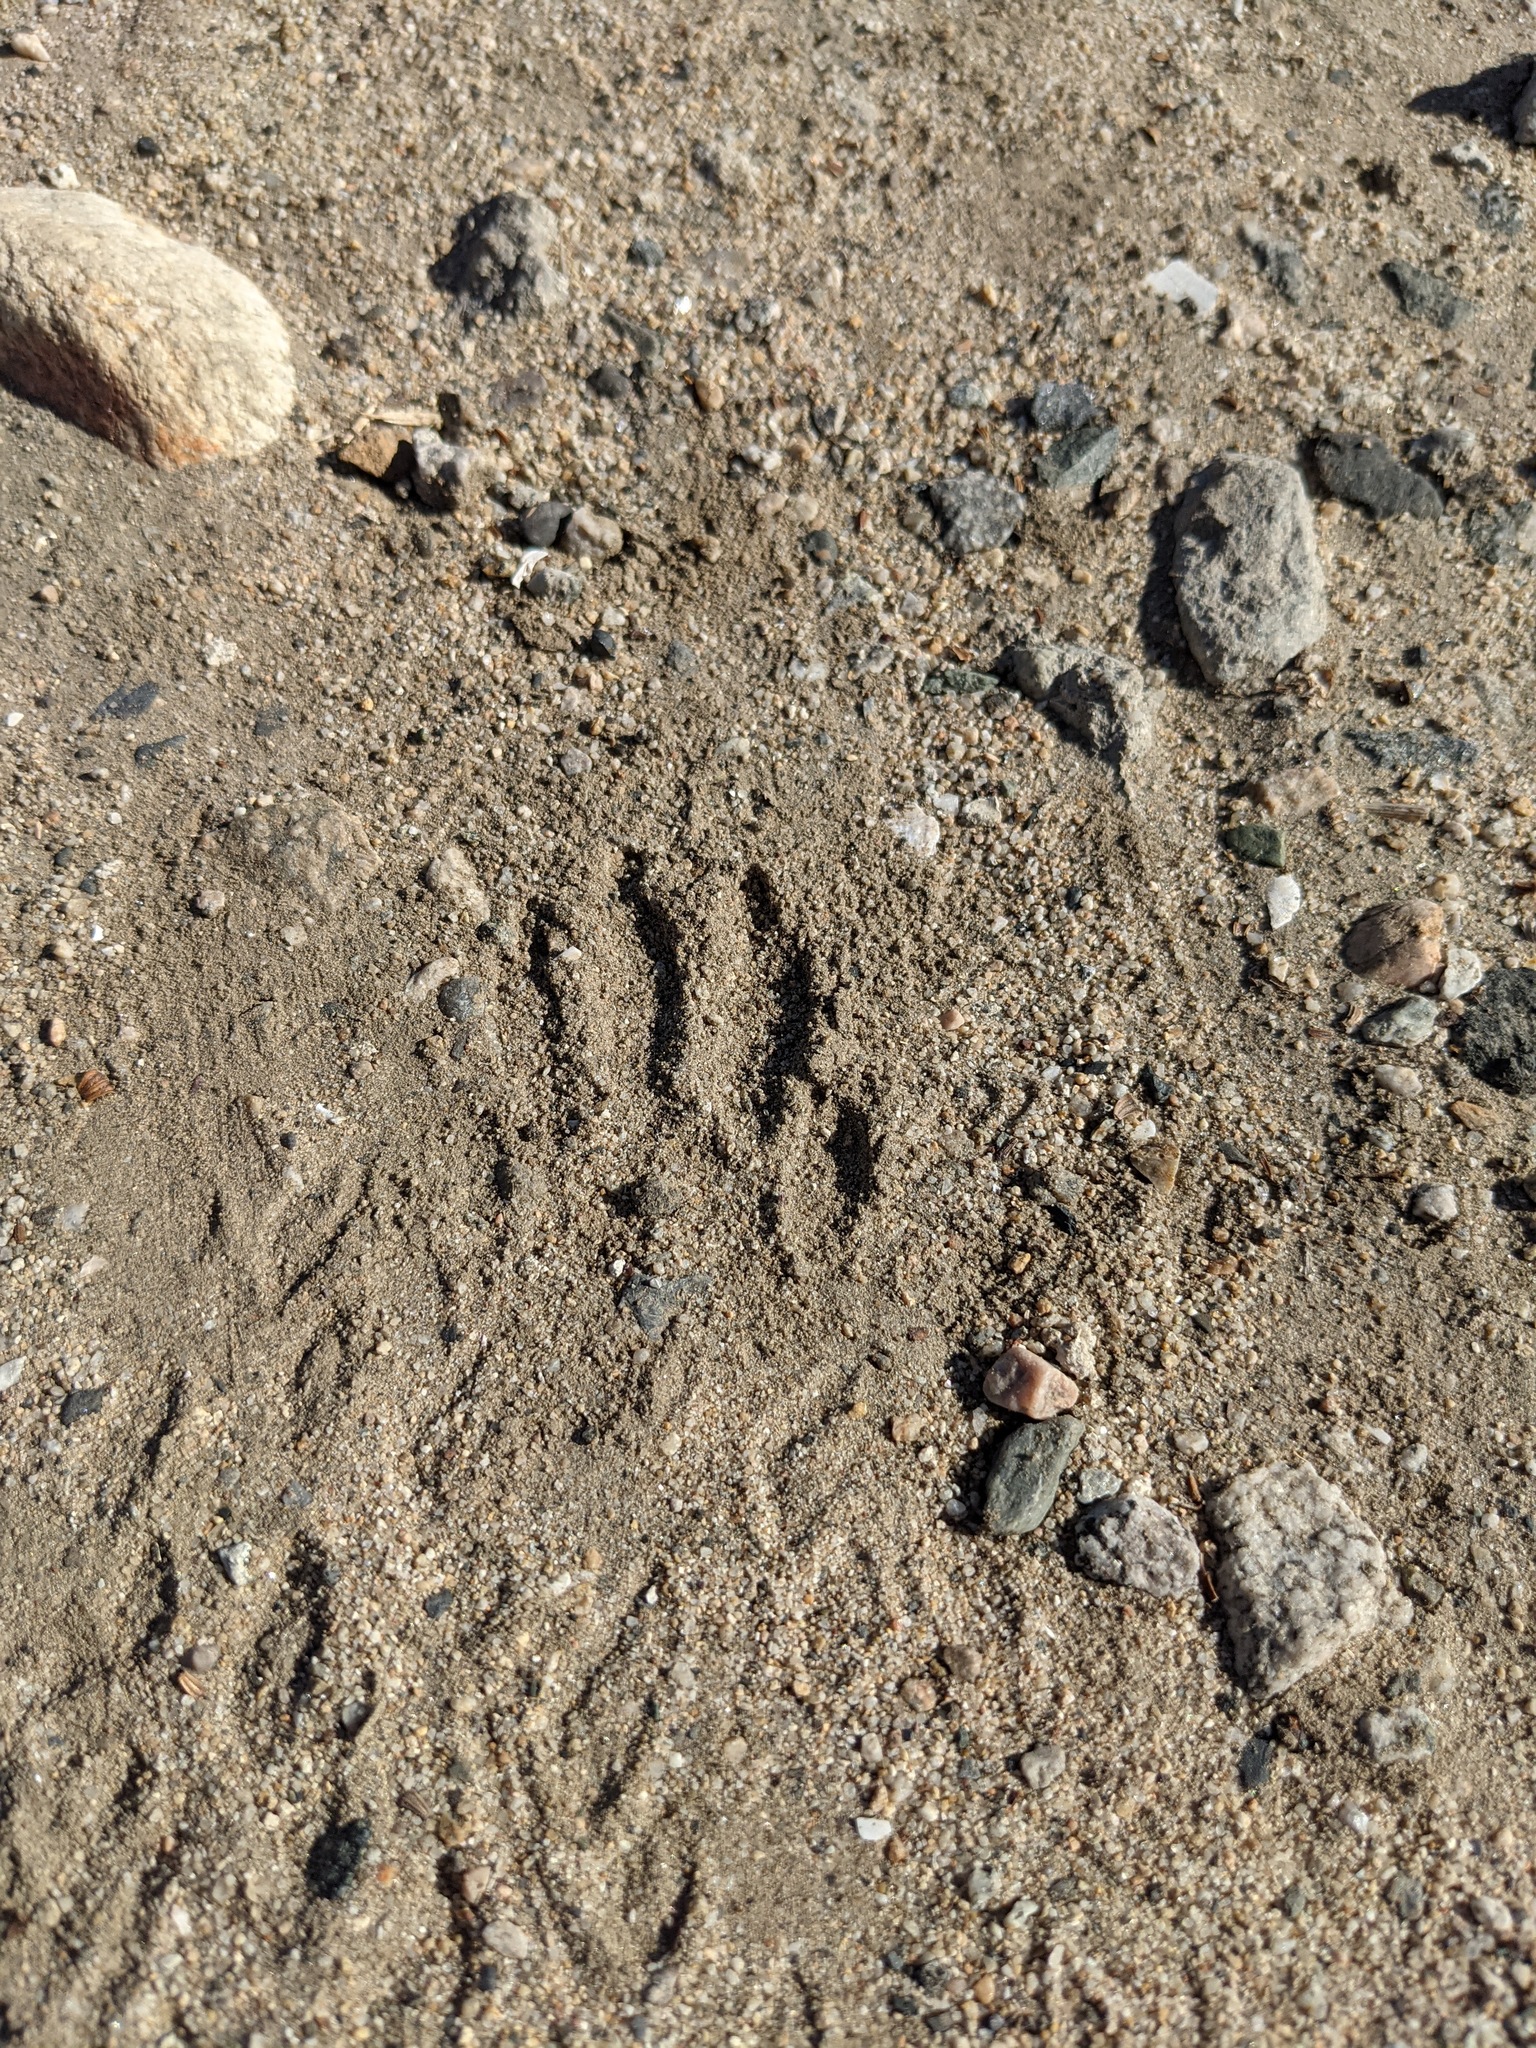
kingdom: Animalia
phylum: Chordata
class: Mammalia
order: Carnivora
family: Procyonidae
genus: Procyon
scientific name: Procyon lotor
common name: Raccoon
